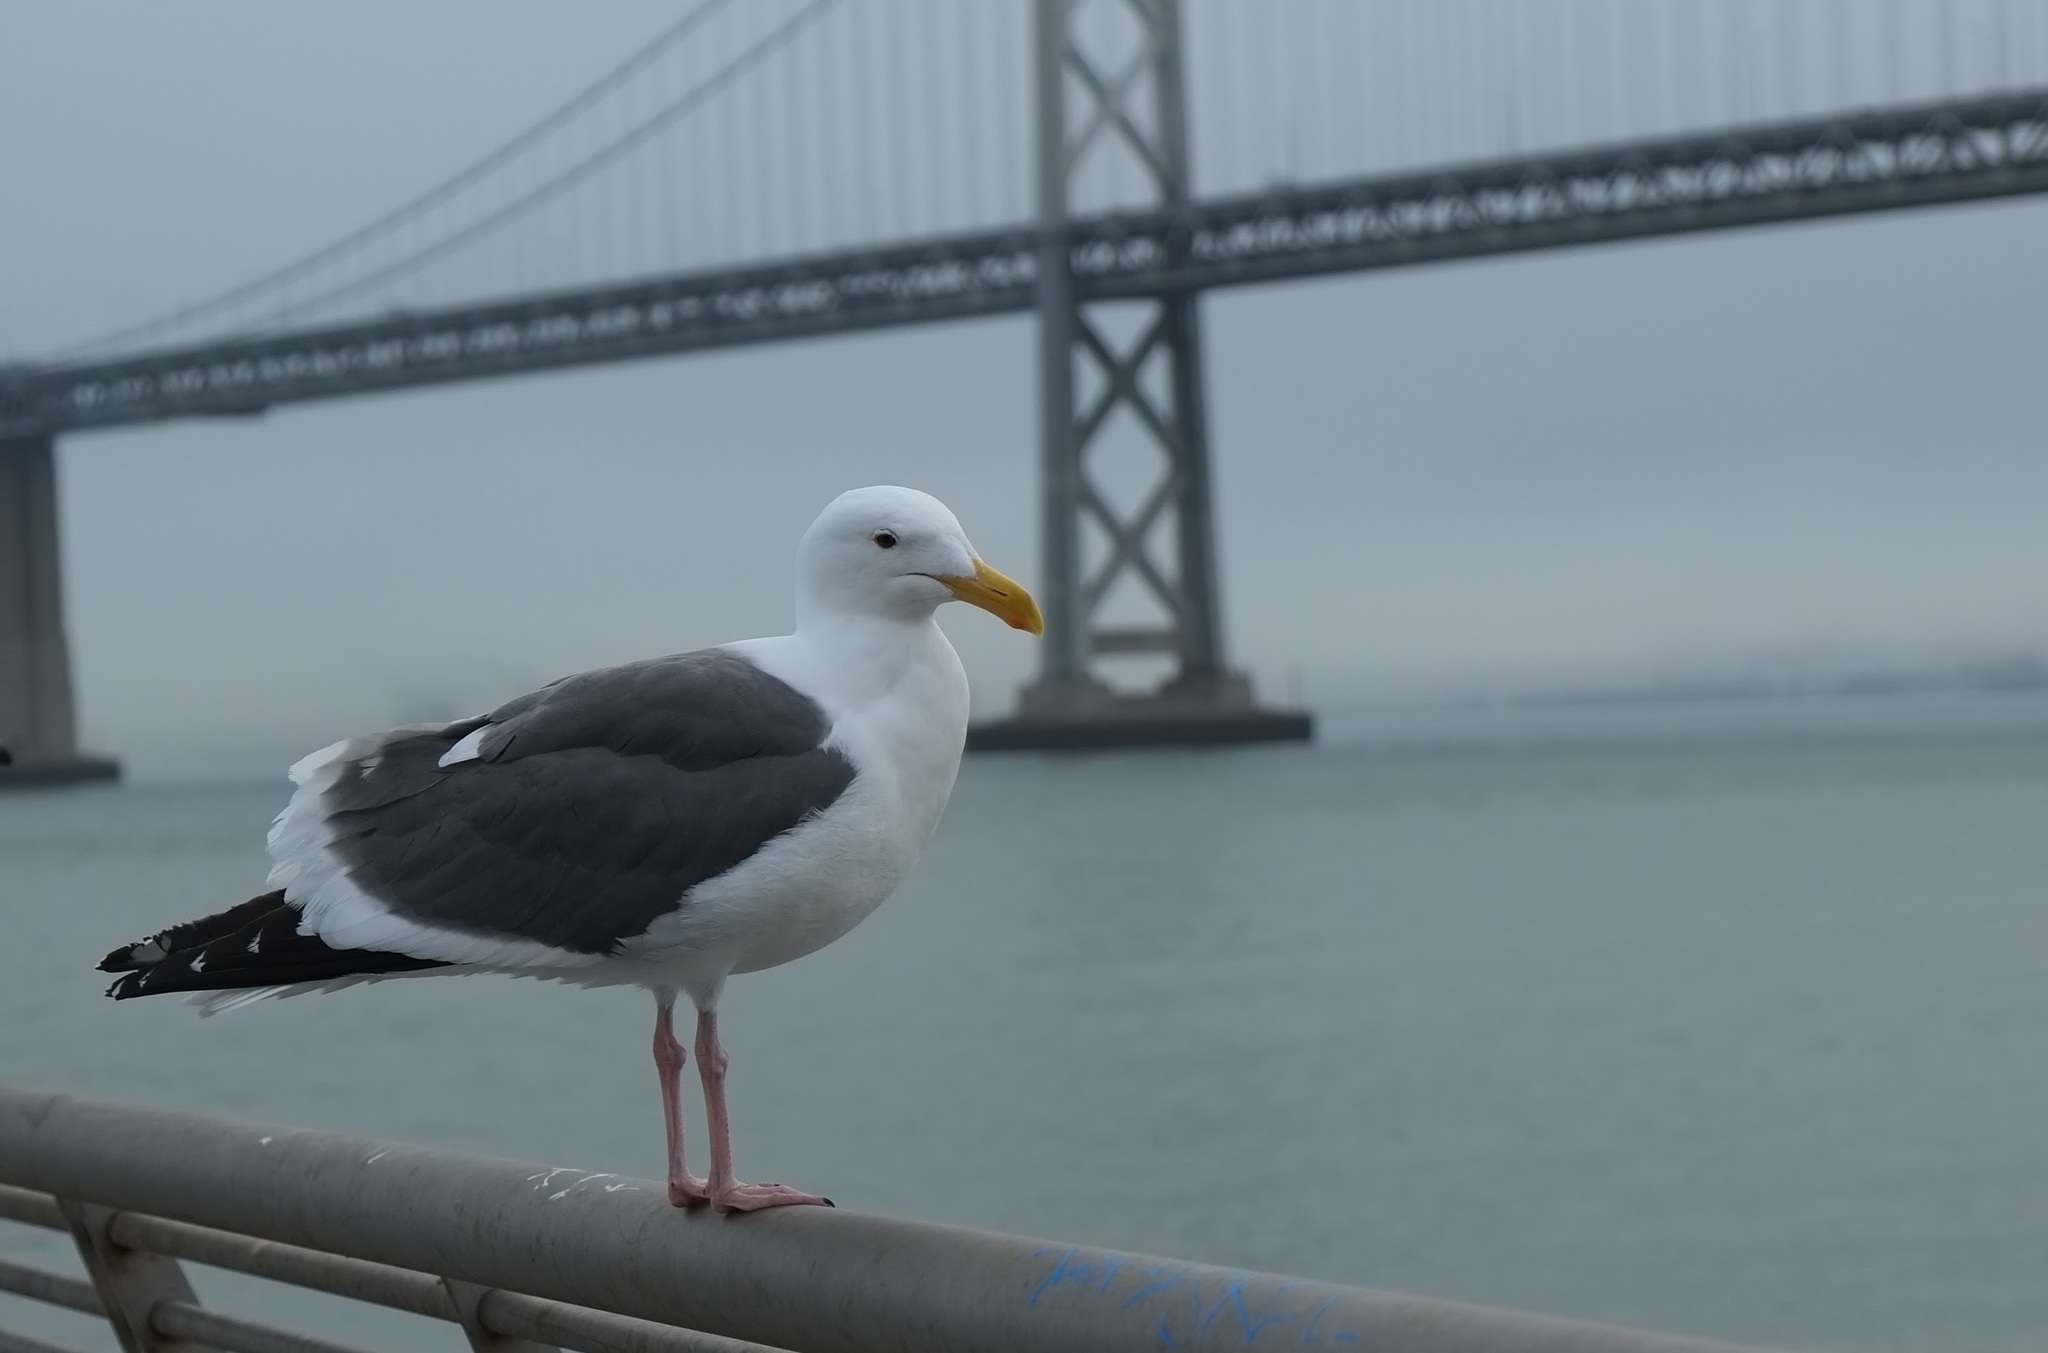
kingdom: Animalia
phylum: Chordata
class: Aves
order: Charadriiformes
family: Laridae
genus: Larus
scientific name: Larus occidentalis
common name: Western gull
